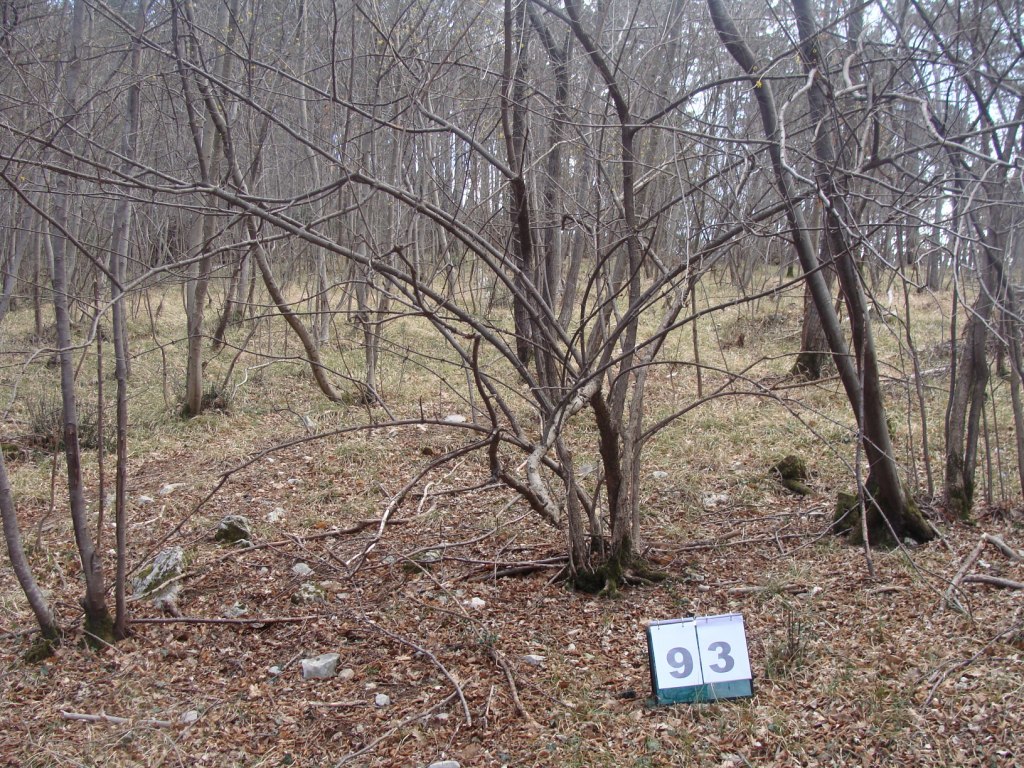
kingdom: Plantae
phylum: Tracheophyta
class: Magnoliopsida
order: Cornales
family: Cornaceae
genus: Cornus
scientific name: Cornus mas
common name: Cornelian-cherry
